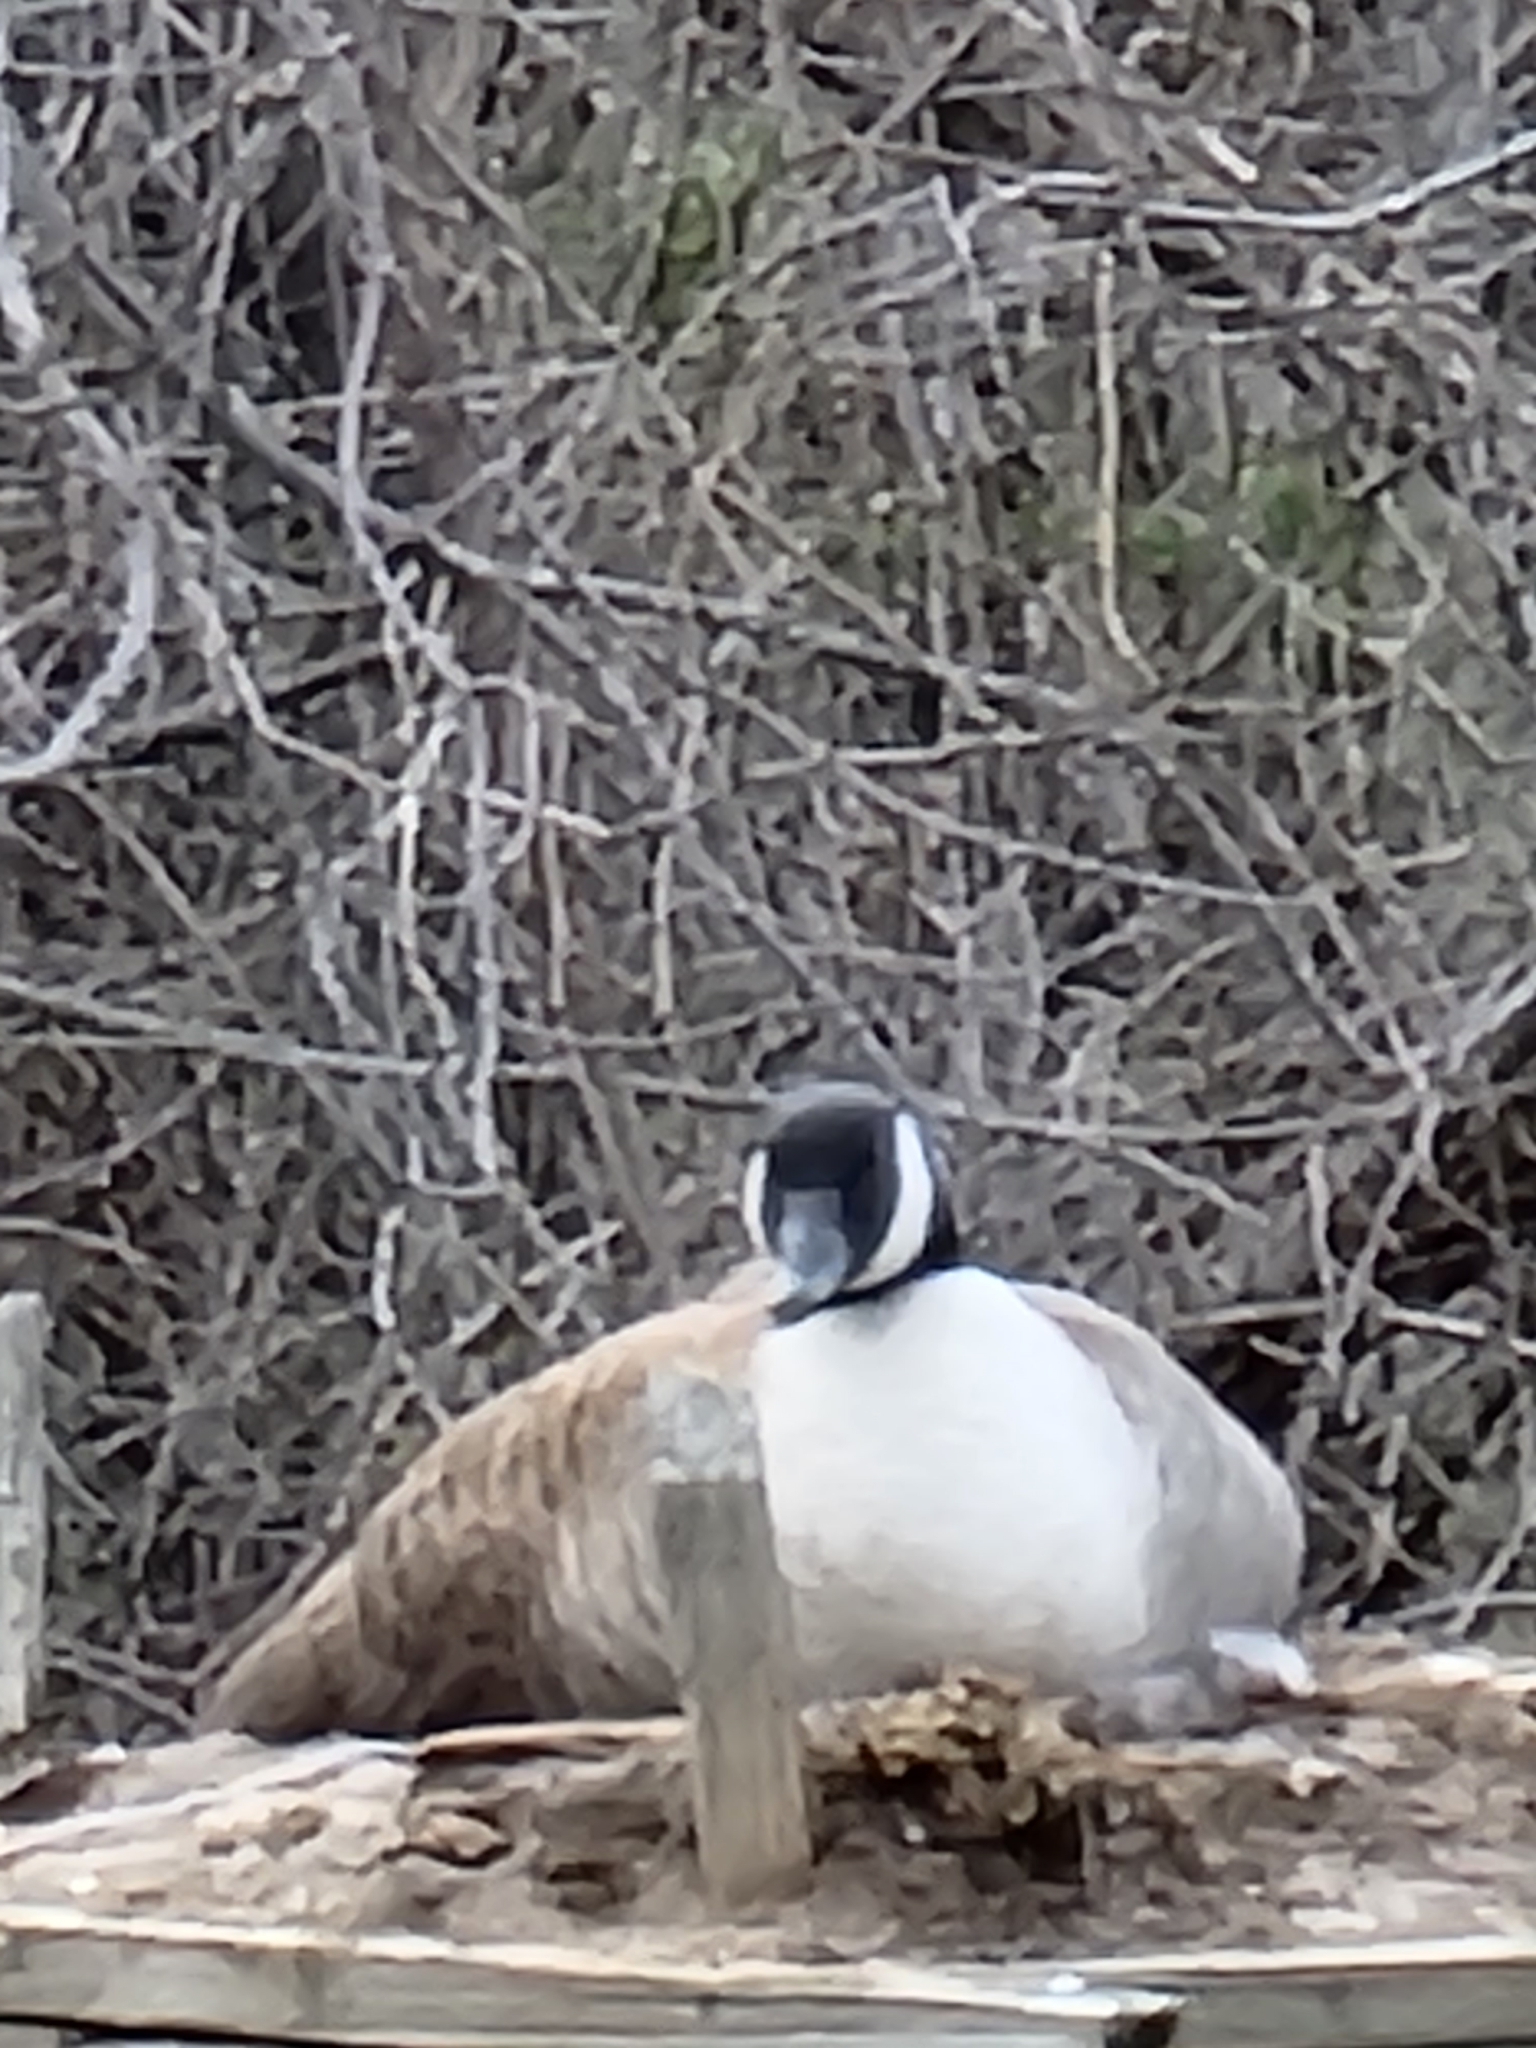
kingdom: Animalia
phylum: Chordata
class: Aves
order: Anseriformes
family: Anatidae
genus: Branta
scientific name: Branta canadensis
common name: Canada goose
